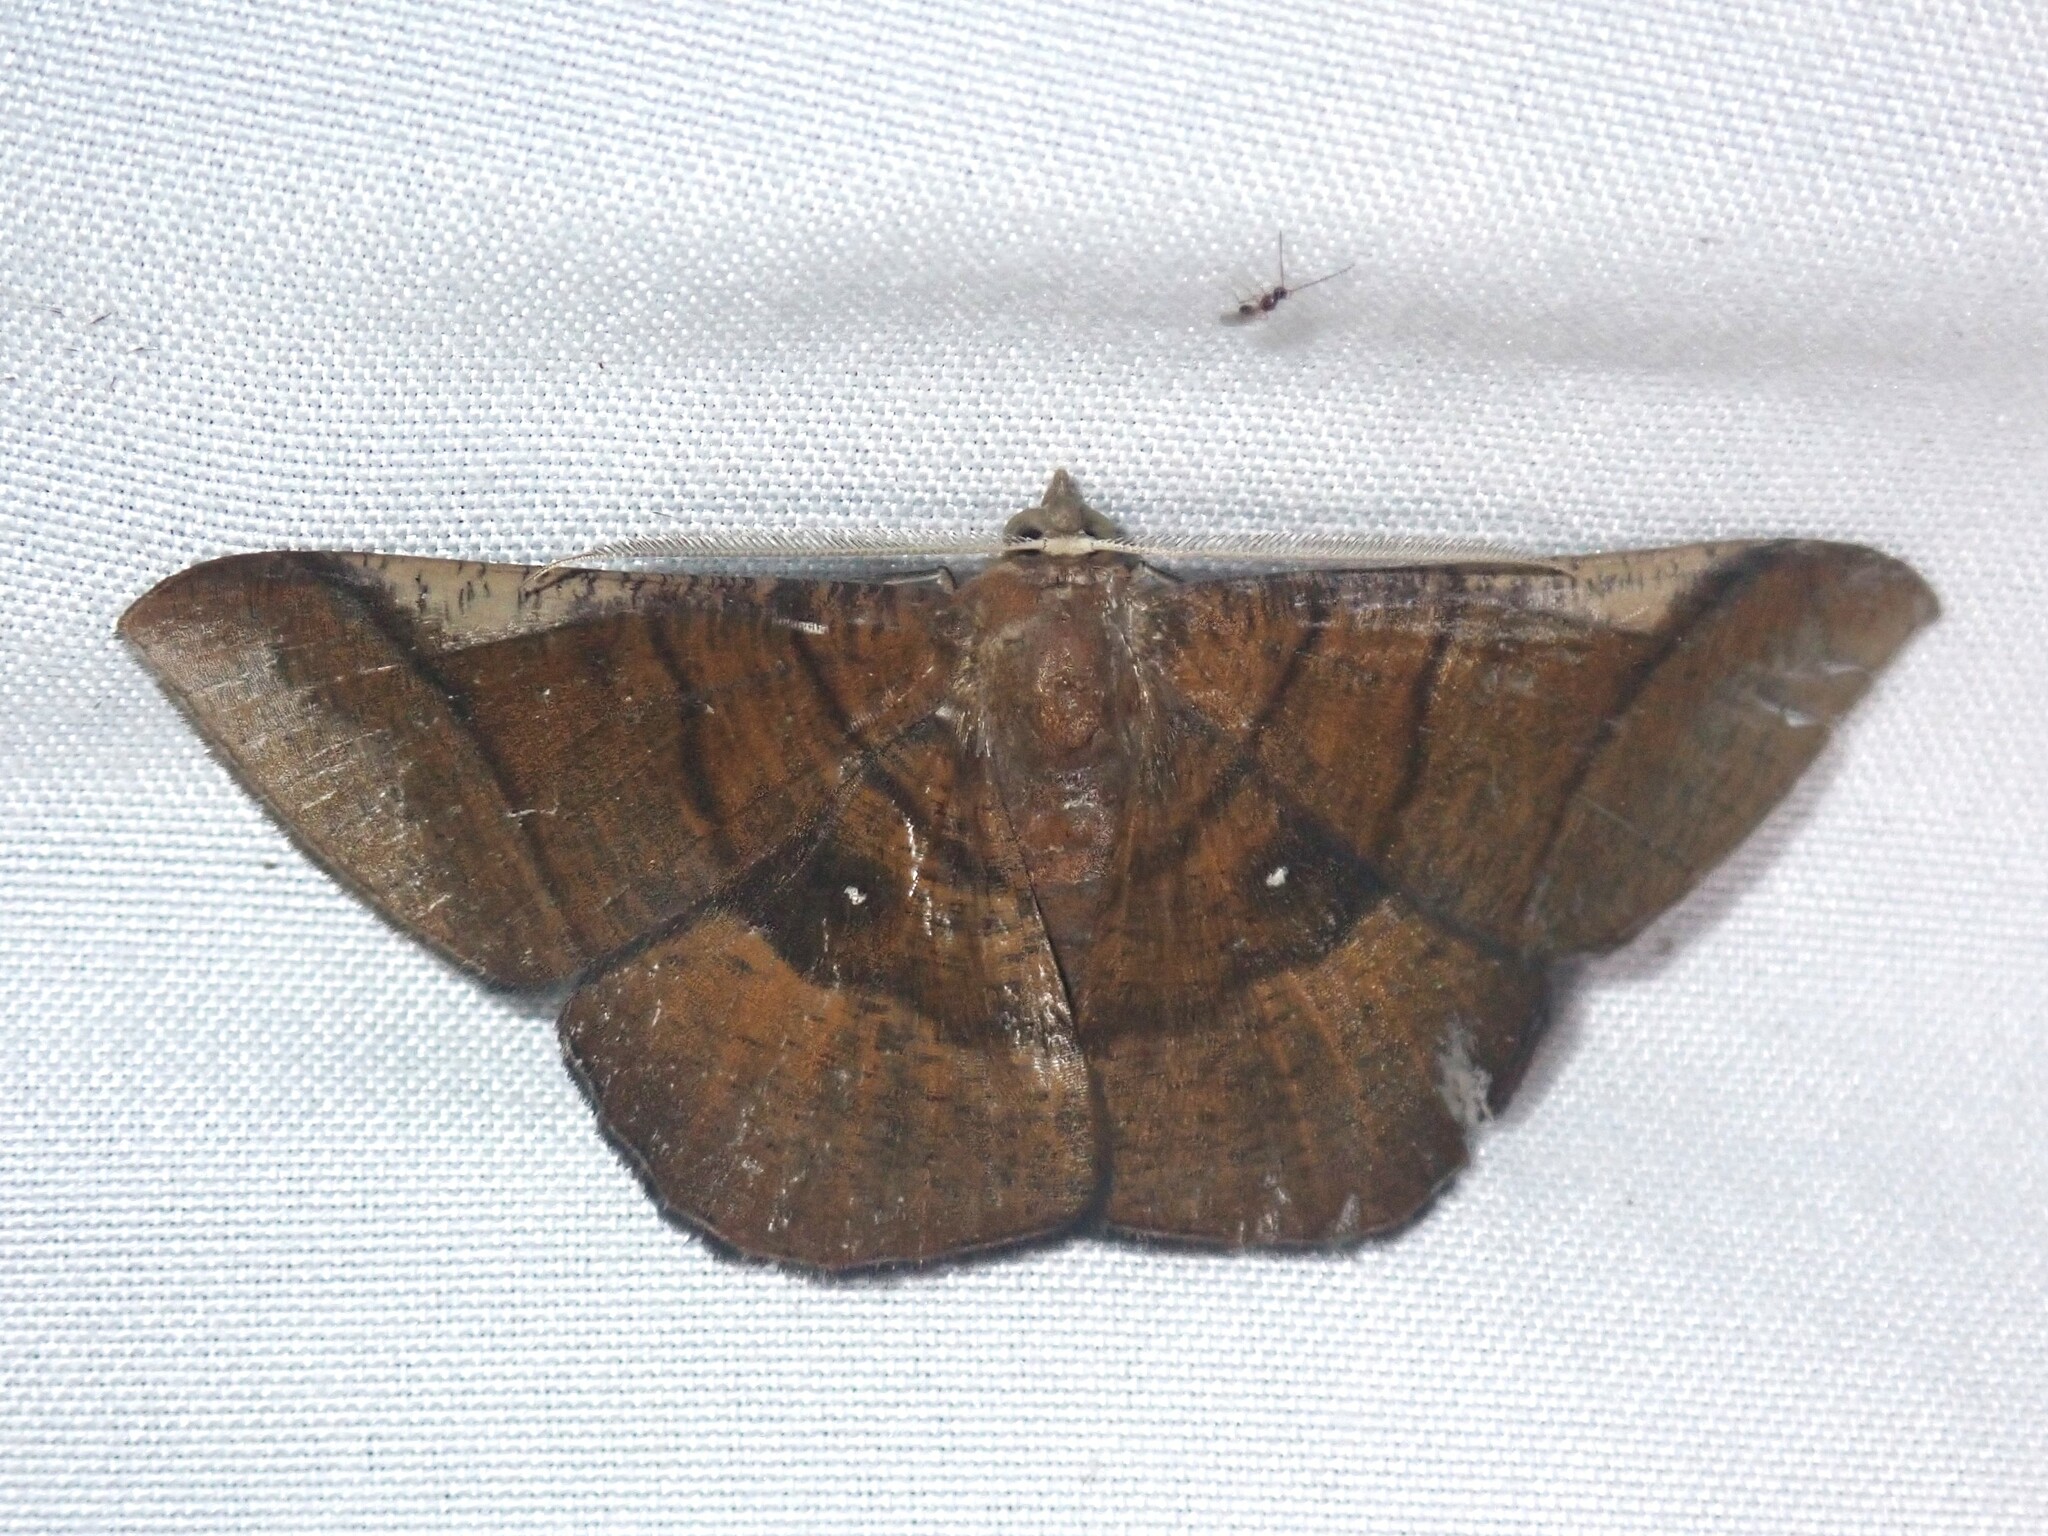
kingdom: Animalia
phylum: Arthropoda
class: Insecta
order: Lepidoptera
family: Geometridae
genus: Sphacelodes
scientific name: Sphacelodes vulneraria
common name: Looper moth
